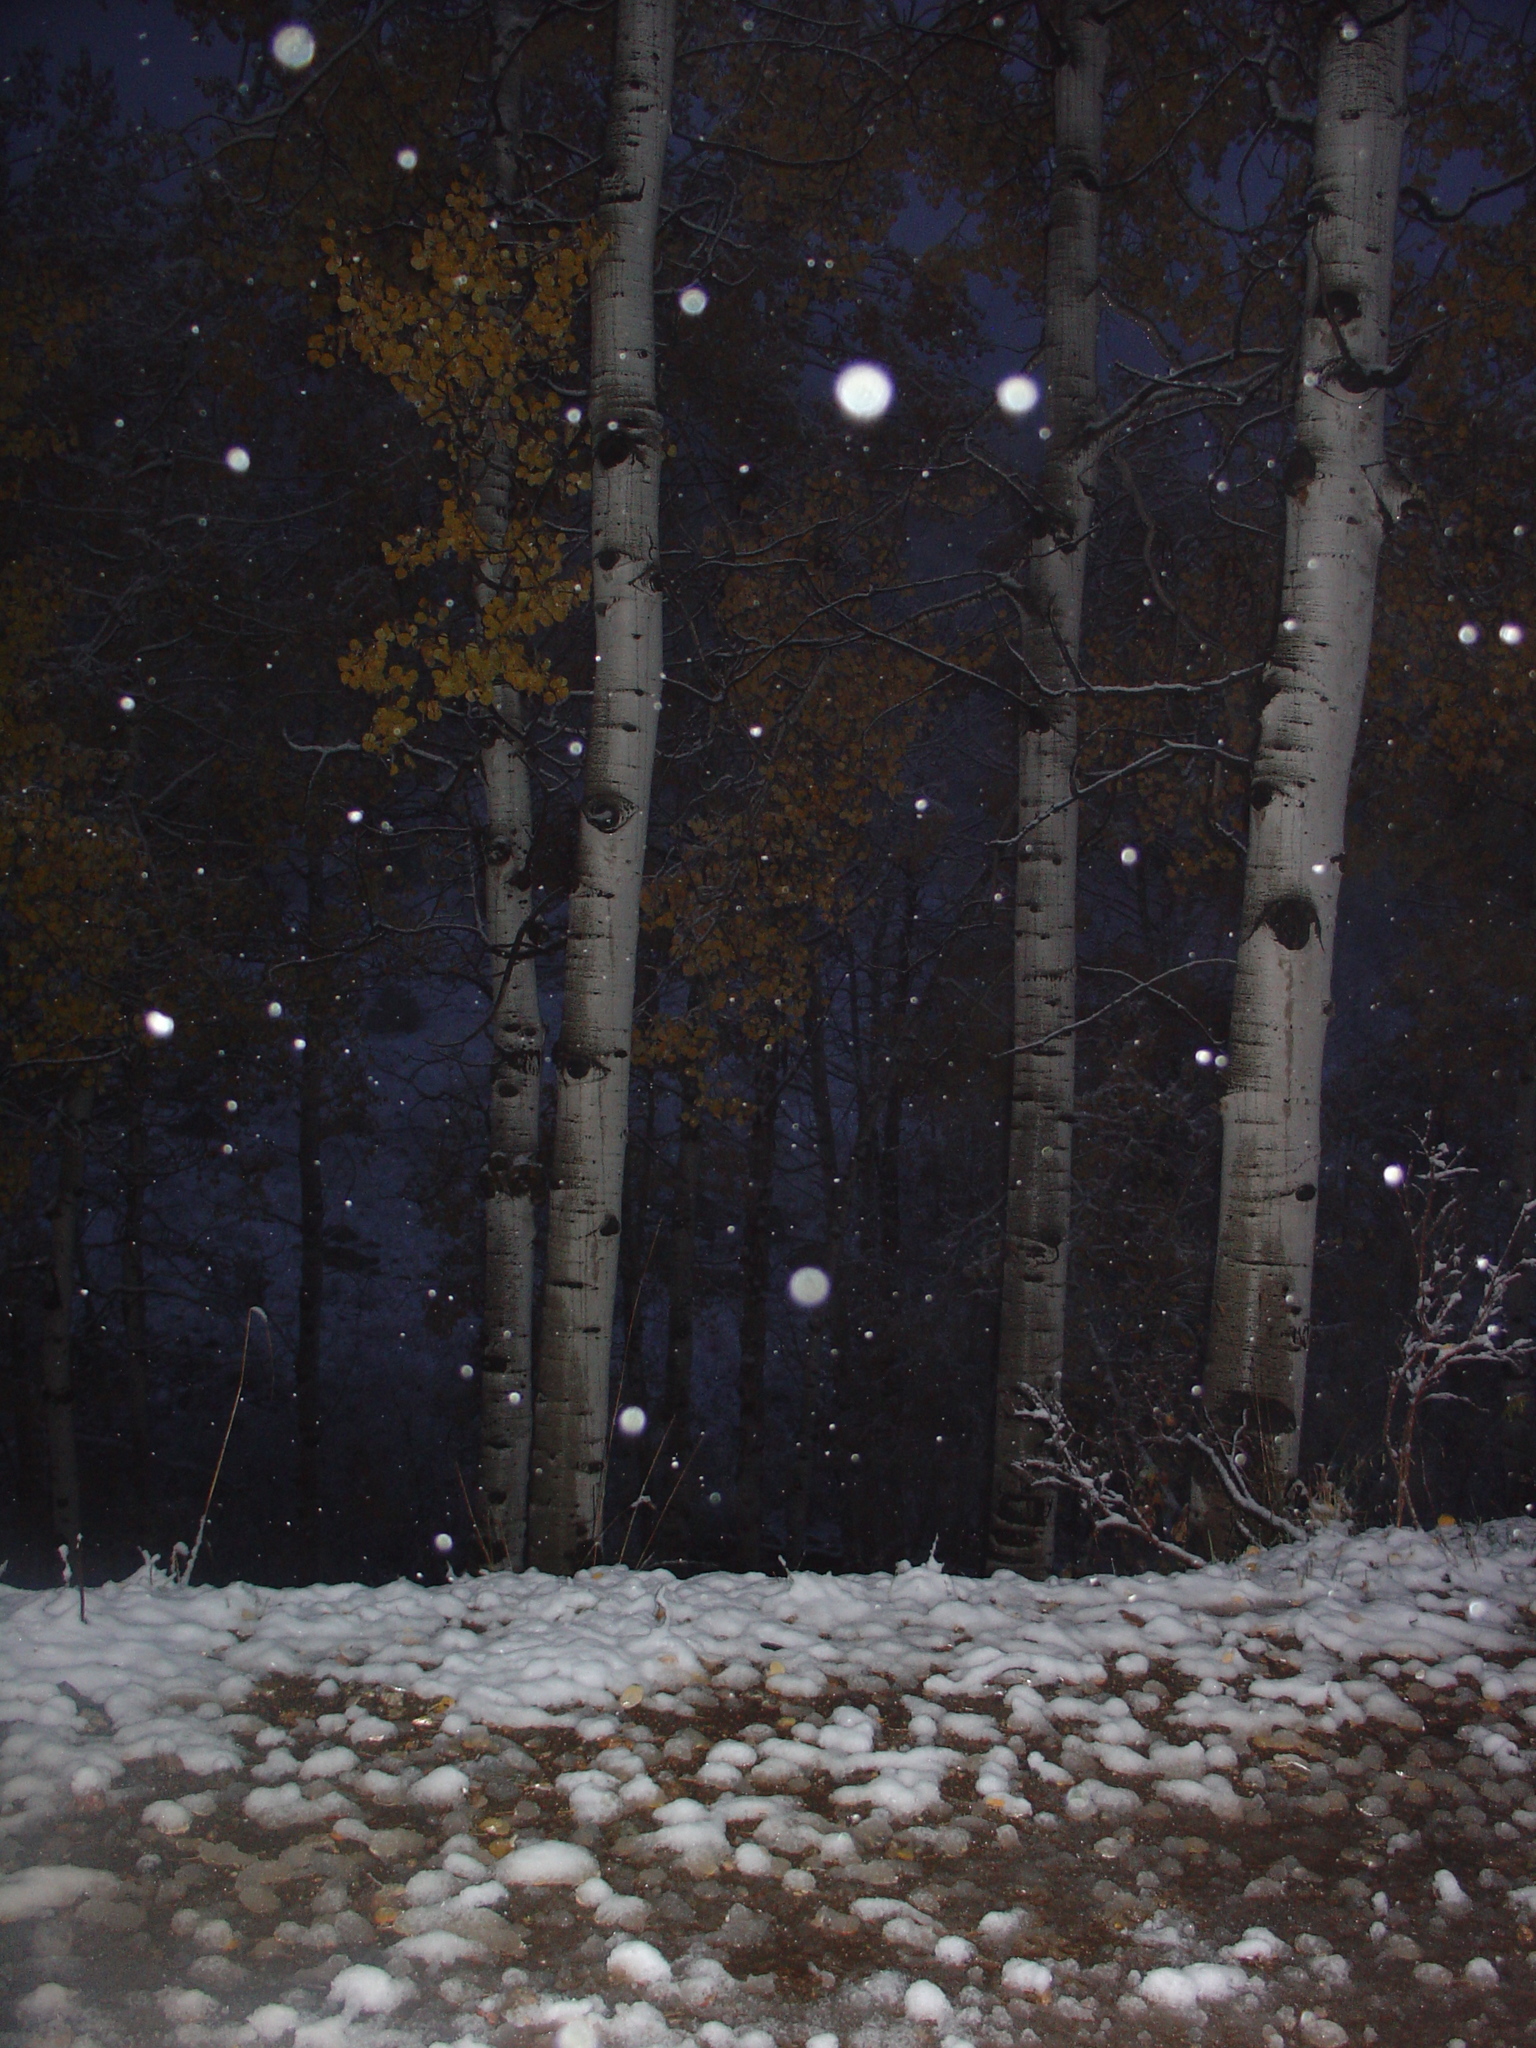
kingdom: Plantae
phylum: Tracheophyta
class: Magnoliopsida
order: Malpighiales
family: Salicaceae
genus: Populus
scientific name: Populus tremuloides
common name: Quaking aspen
